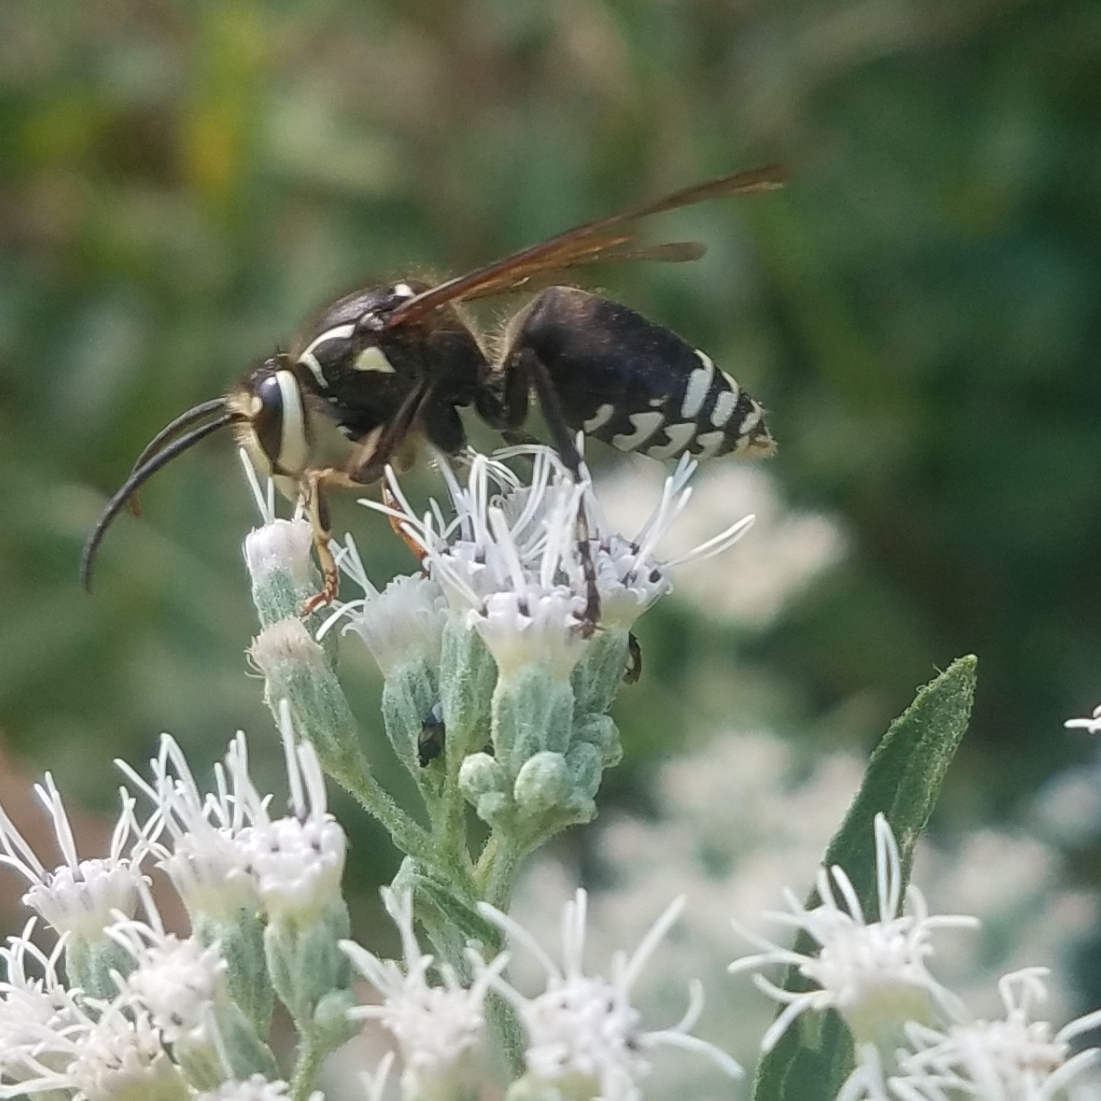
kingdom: Animalia
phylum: Arthropoda
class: Insecta
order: Hymenoptera
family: Vespidae
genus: Dolichovespula
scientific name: Dolichovespula maculata
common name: Bald-faced hornet
